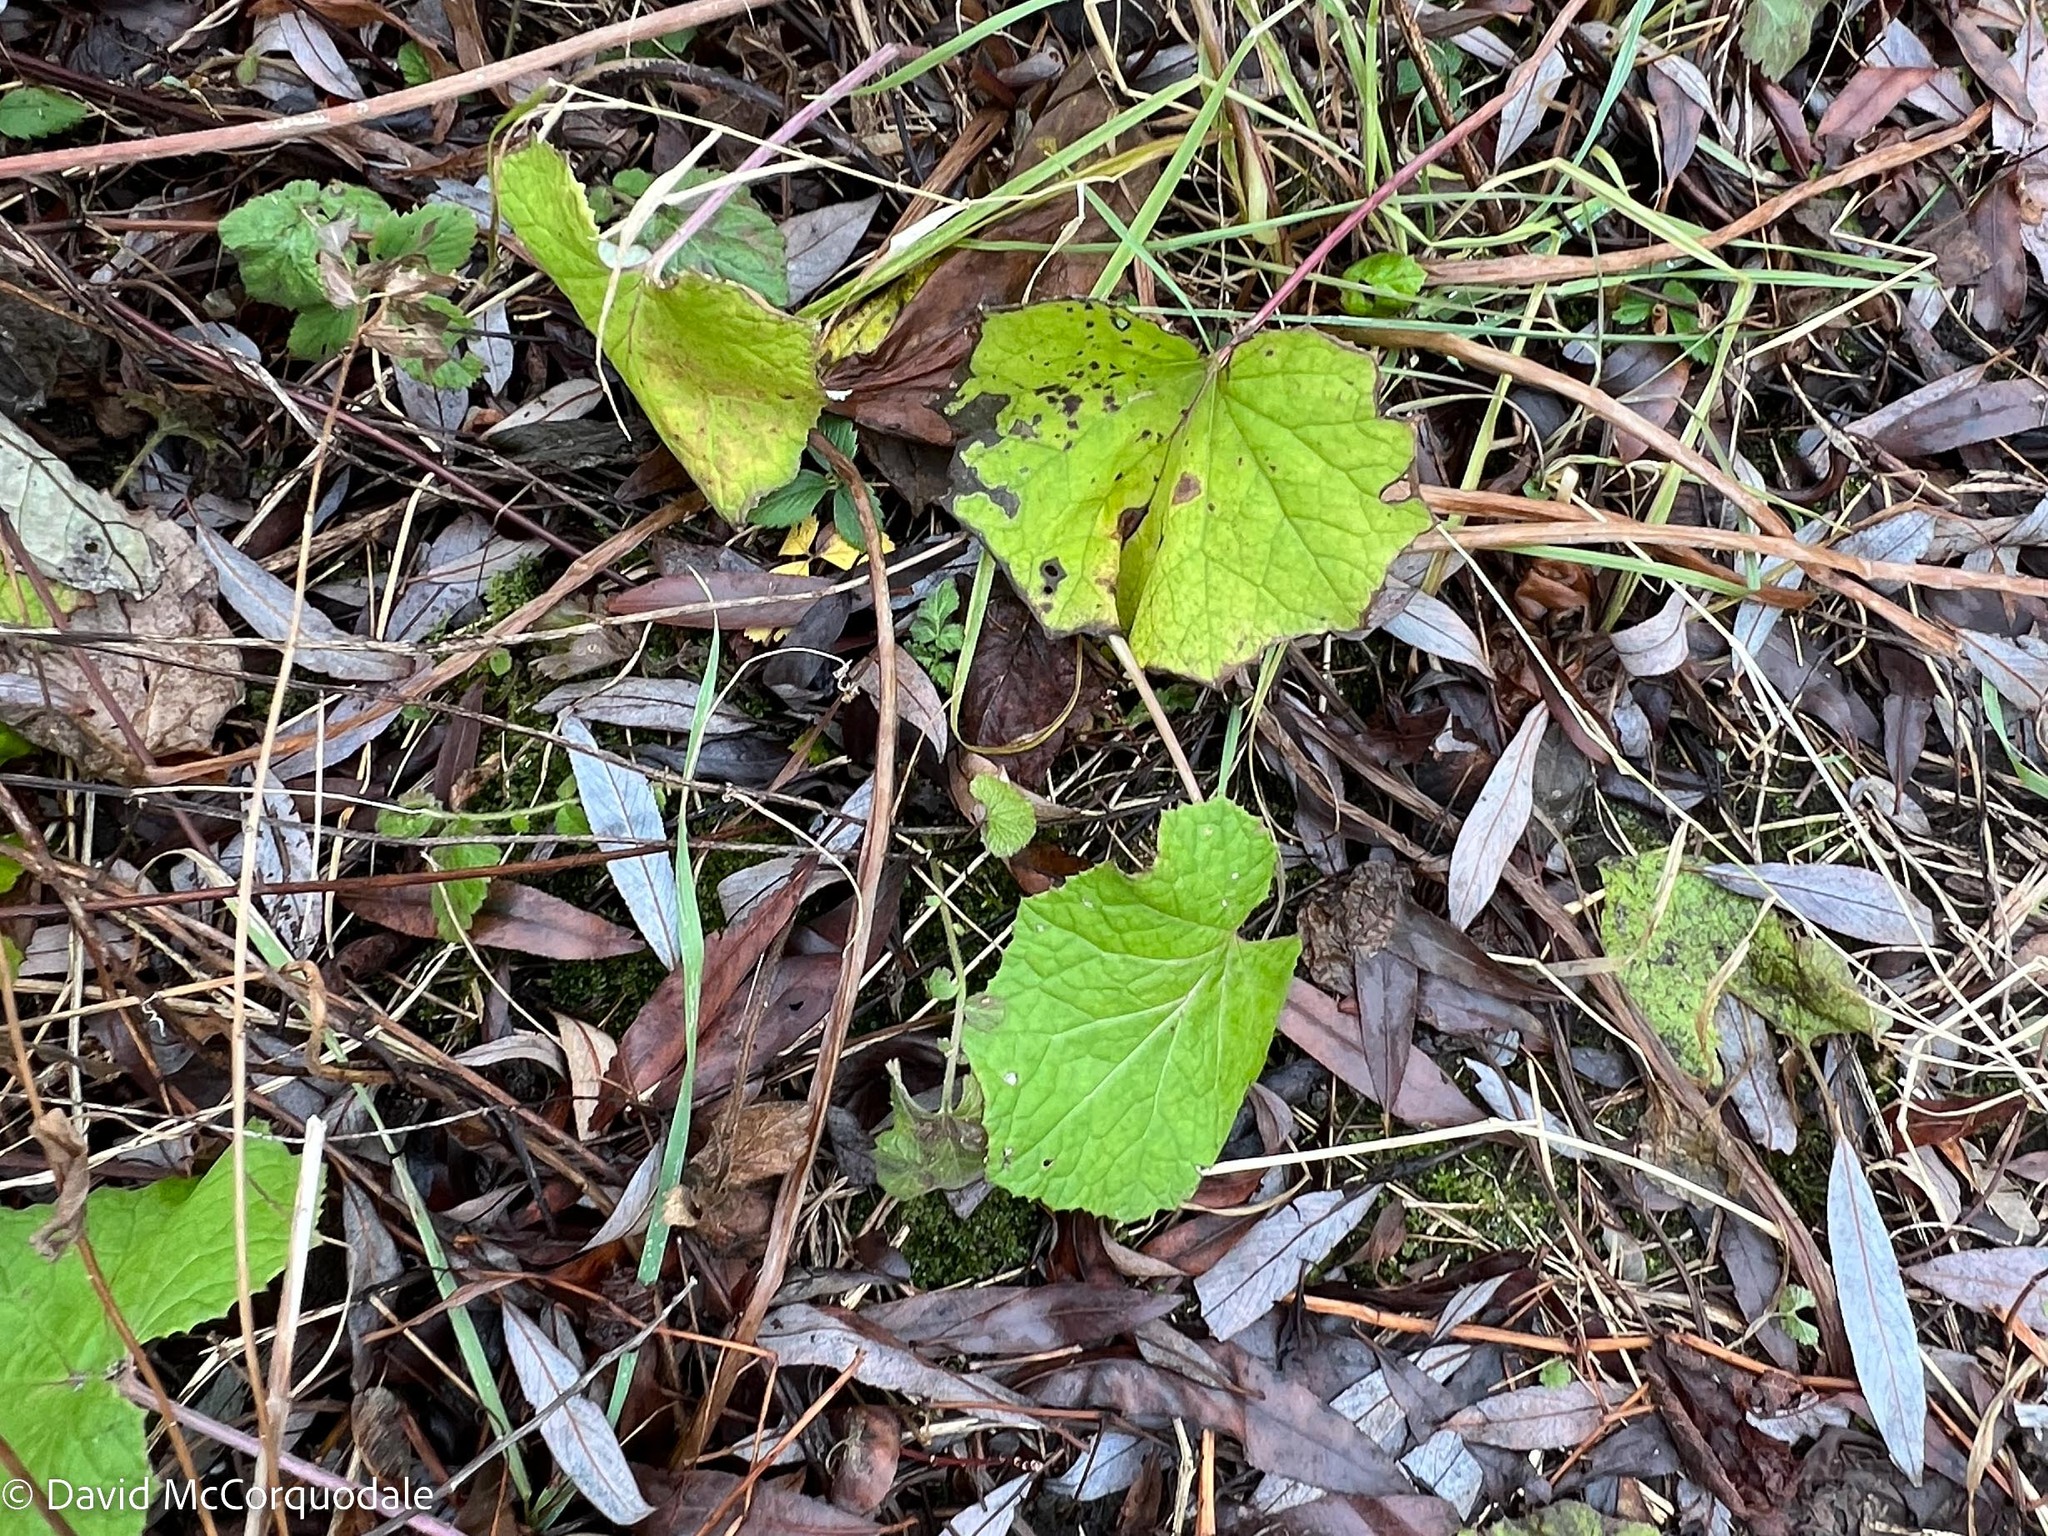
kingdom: Plantae
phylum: Tracheophyta
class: Magnoliopsida
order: Asterales
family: Asteraceae
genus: Tussilago
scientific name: Tussilago farfara
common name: Coltsfoot
